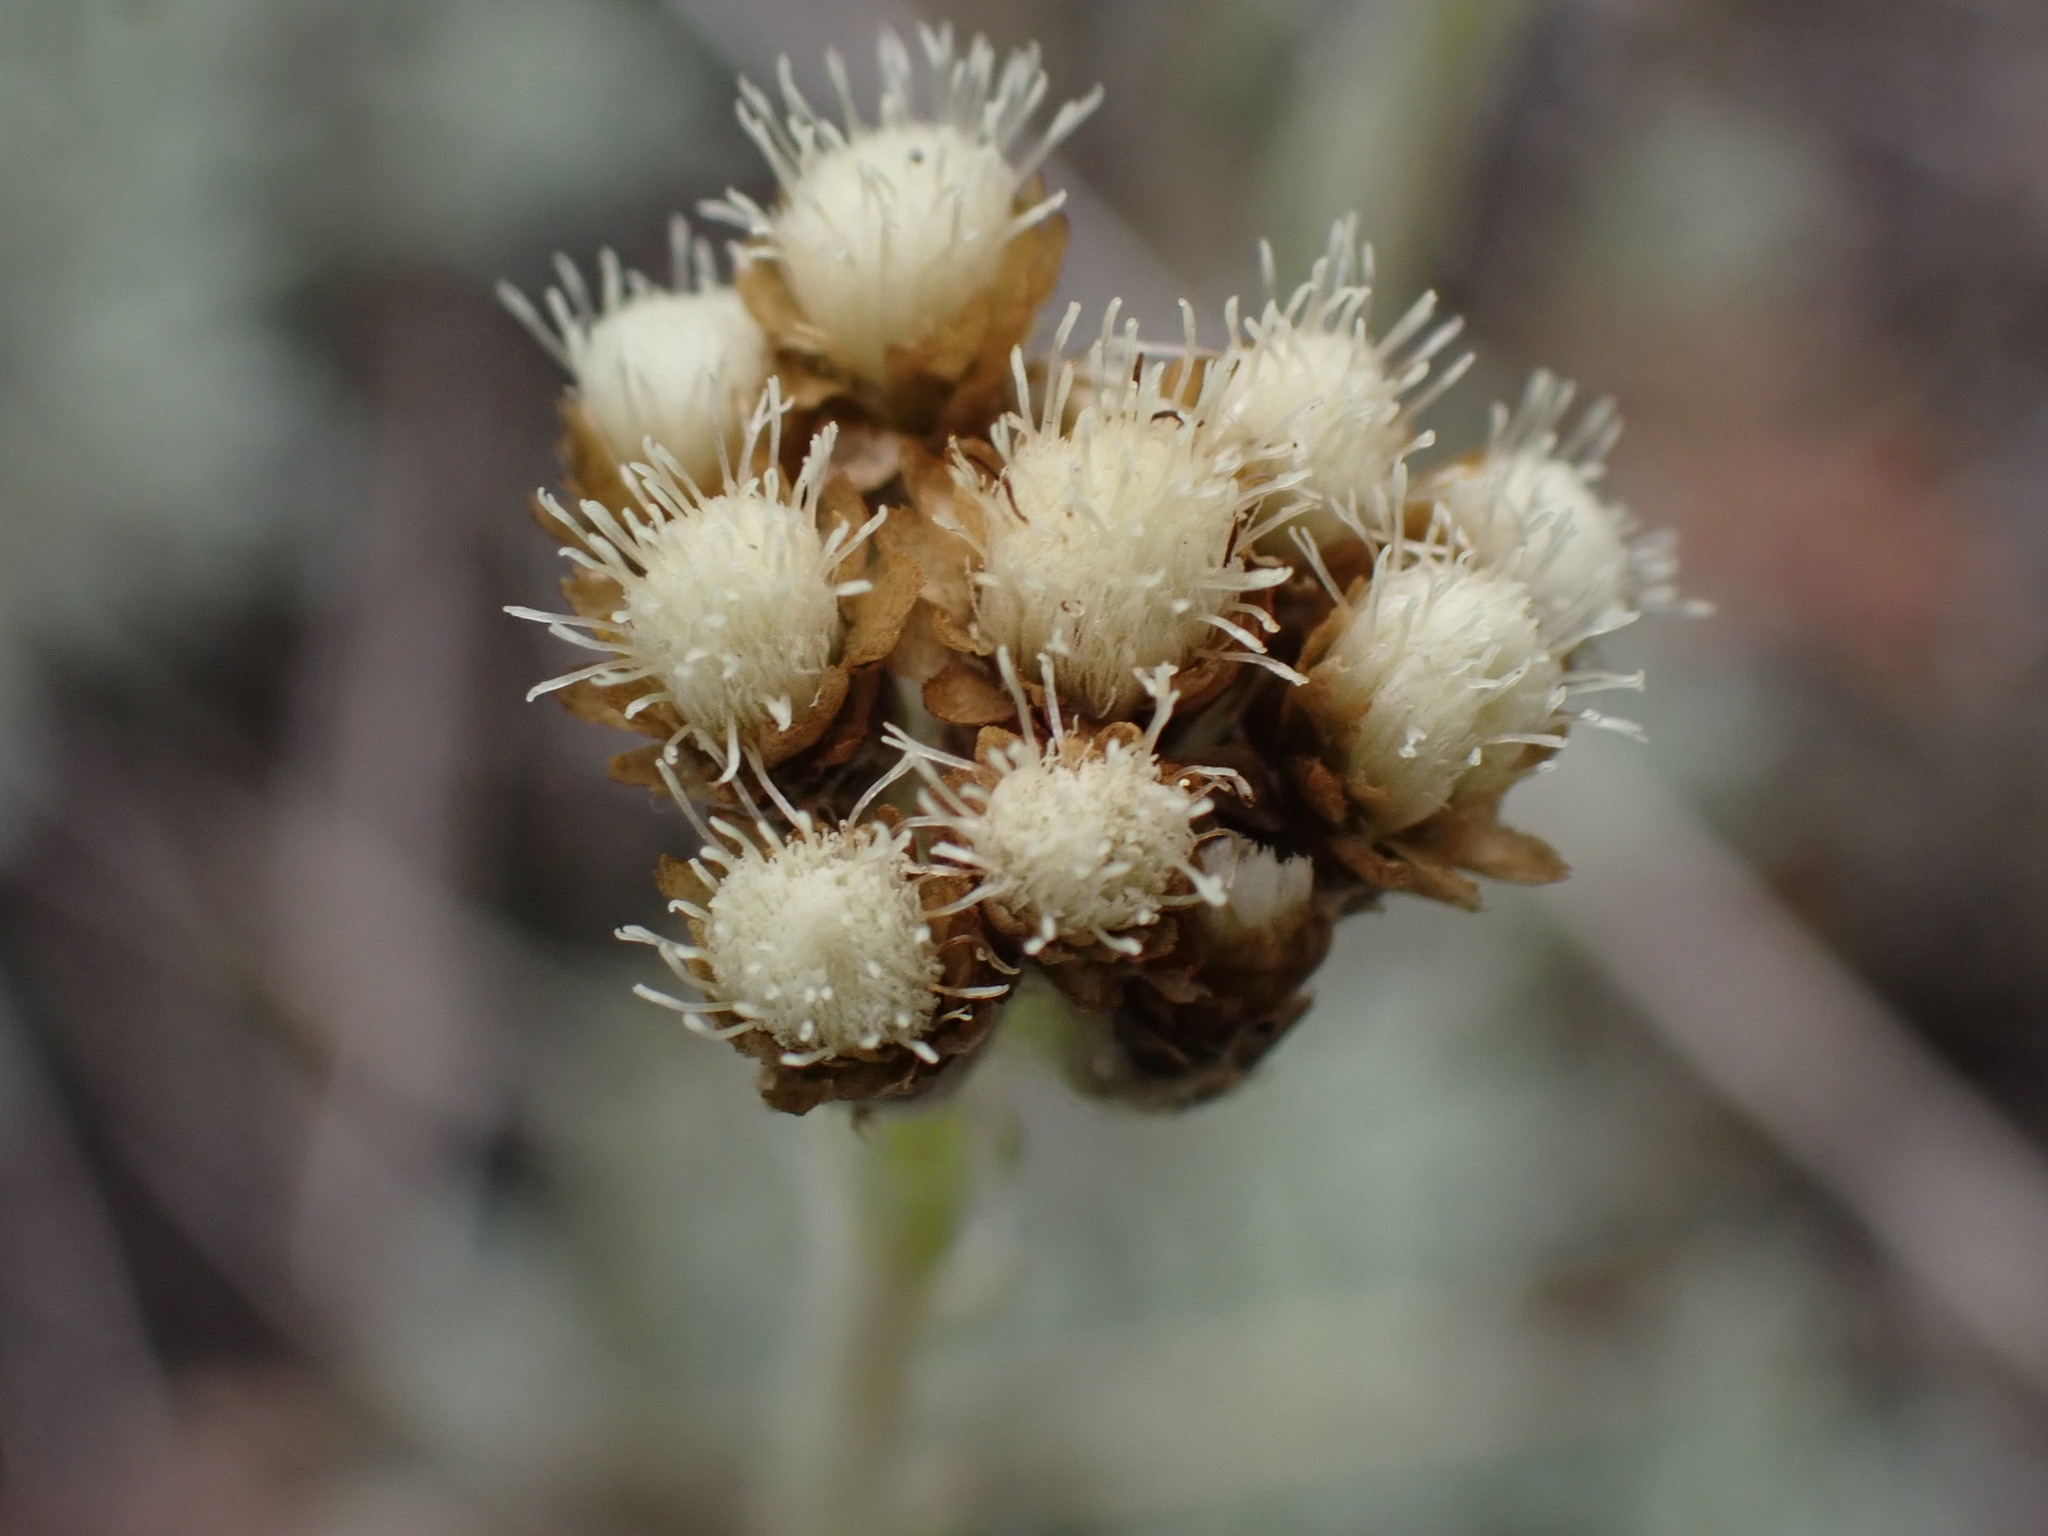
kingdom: Plantae
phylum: Tracheophyta
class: Magnoliopsida
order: Asterales
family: Asteraceae
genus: Antennaria
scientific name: Antennaria umbrinella
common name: Brown pussytoes
